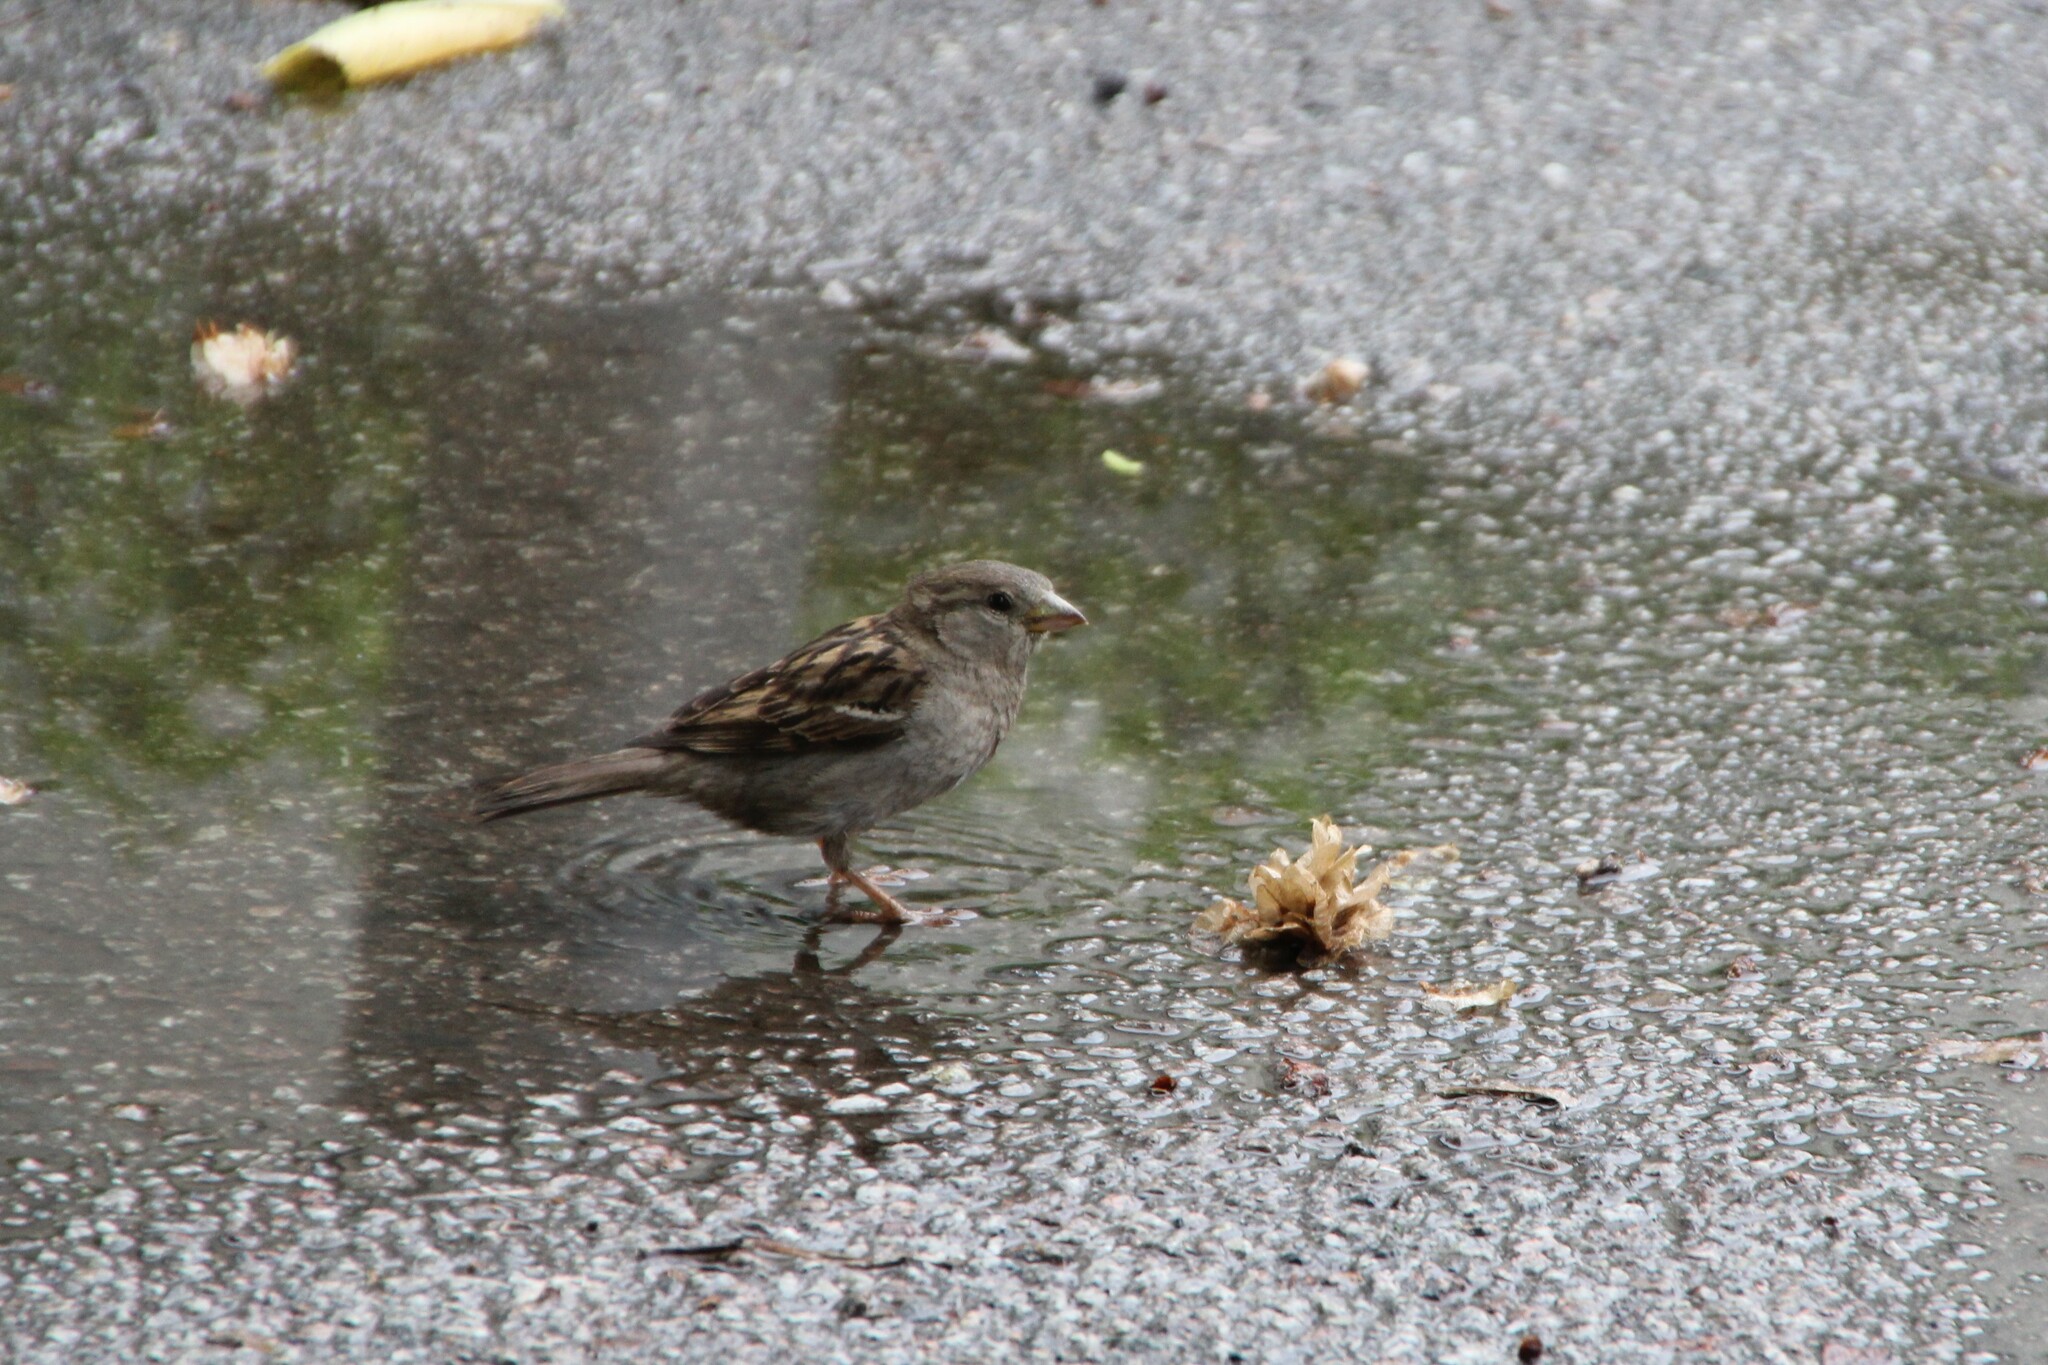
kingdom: Animalia
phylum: Chordata
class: Aves
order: Passeriformes
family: Passeridae
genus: Passer
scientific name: Passer domesticus
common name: House sparrow
